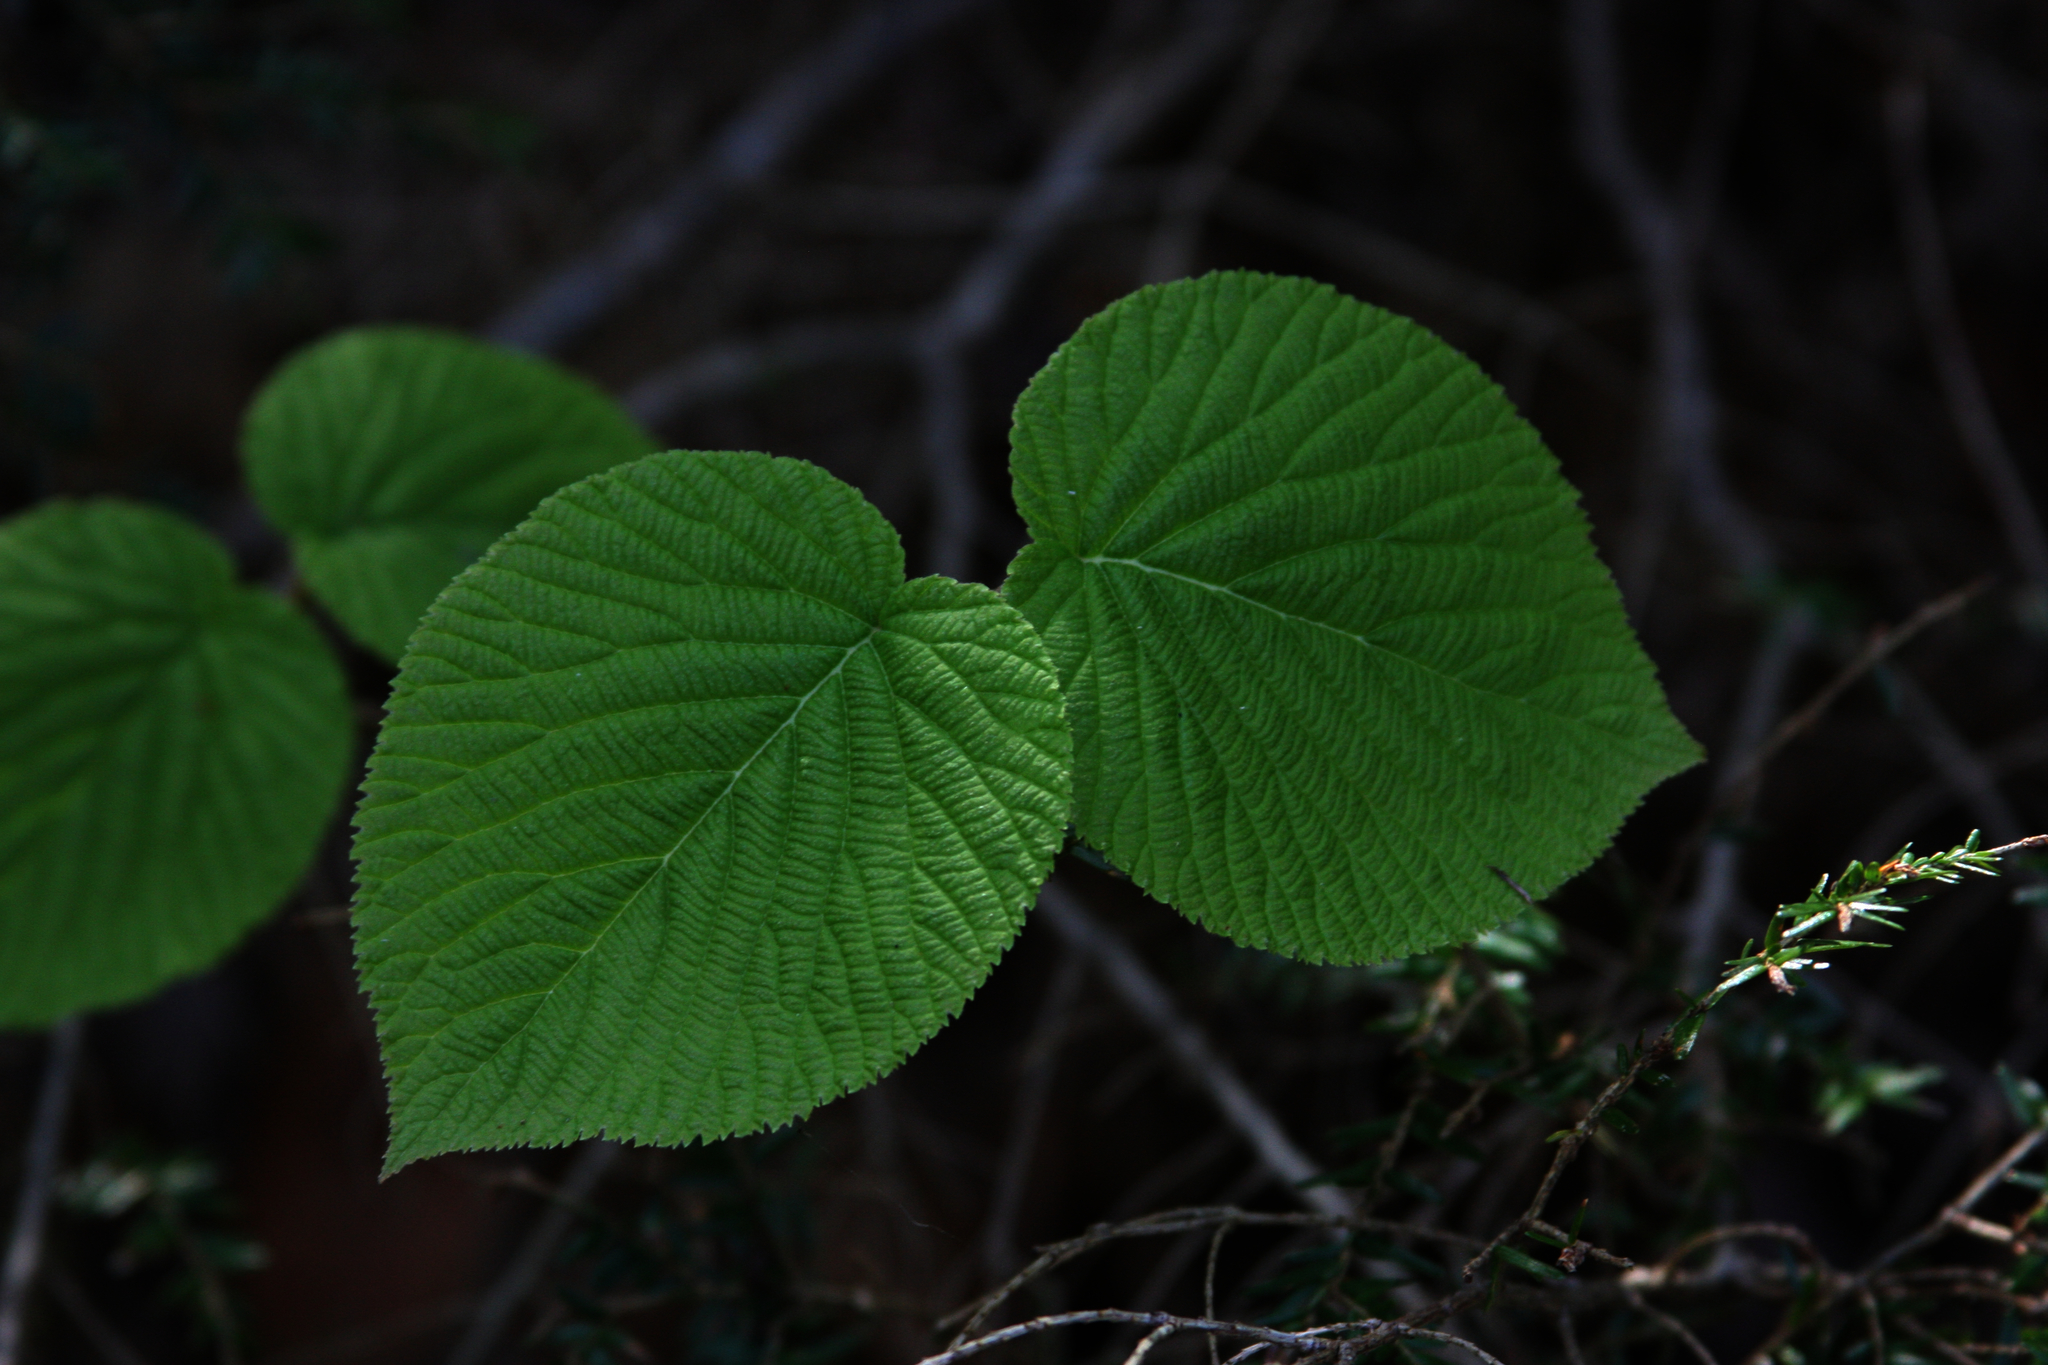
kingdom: Plantae
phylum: Tracheophyta
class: Magnoliopsida
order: Dipsacales
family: Viburnaceae
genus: Viburnum
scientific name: Viburnum lantanoides
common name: Hobblebush
